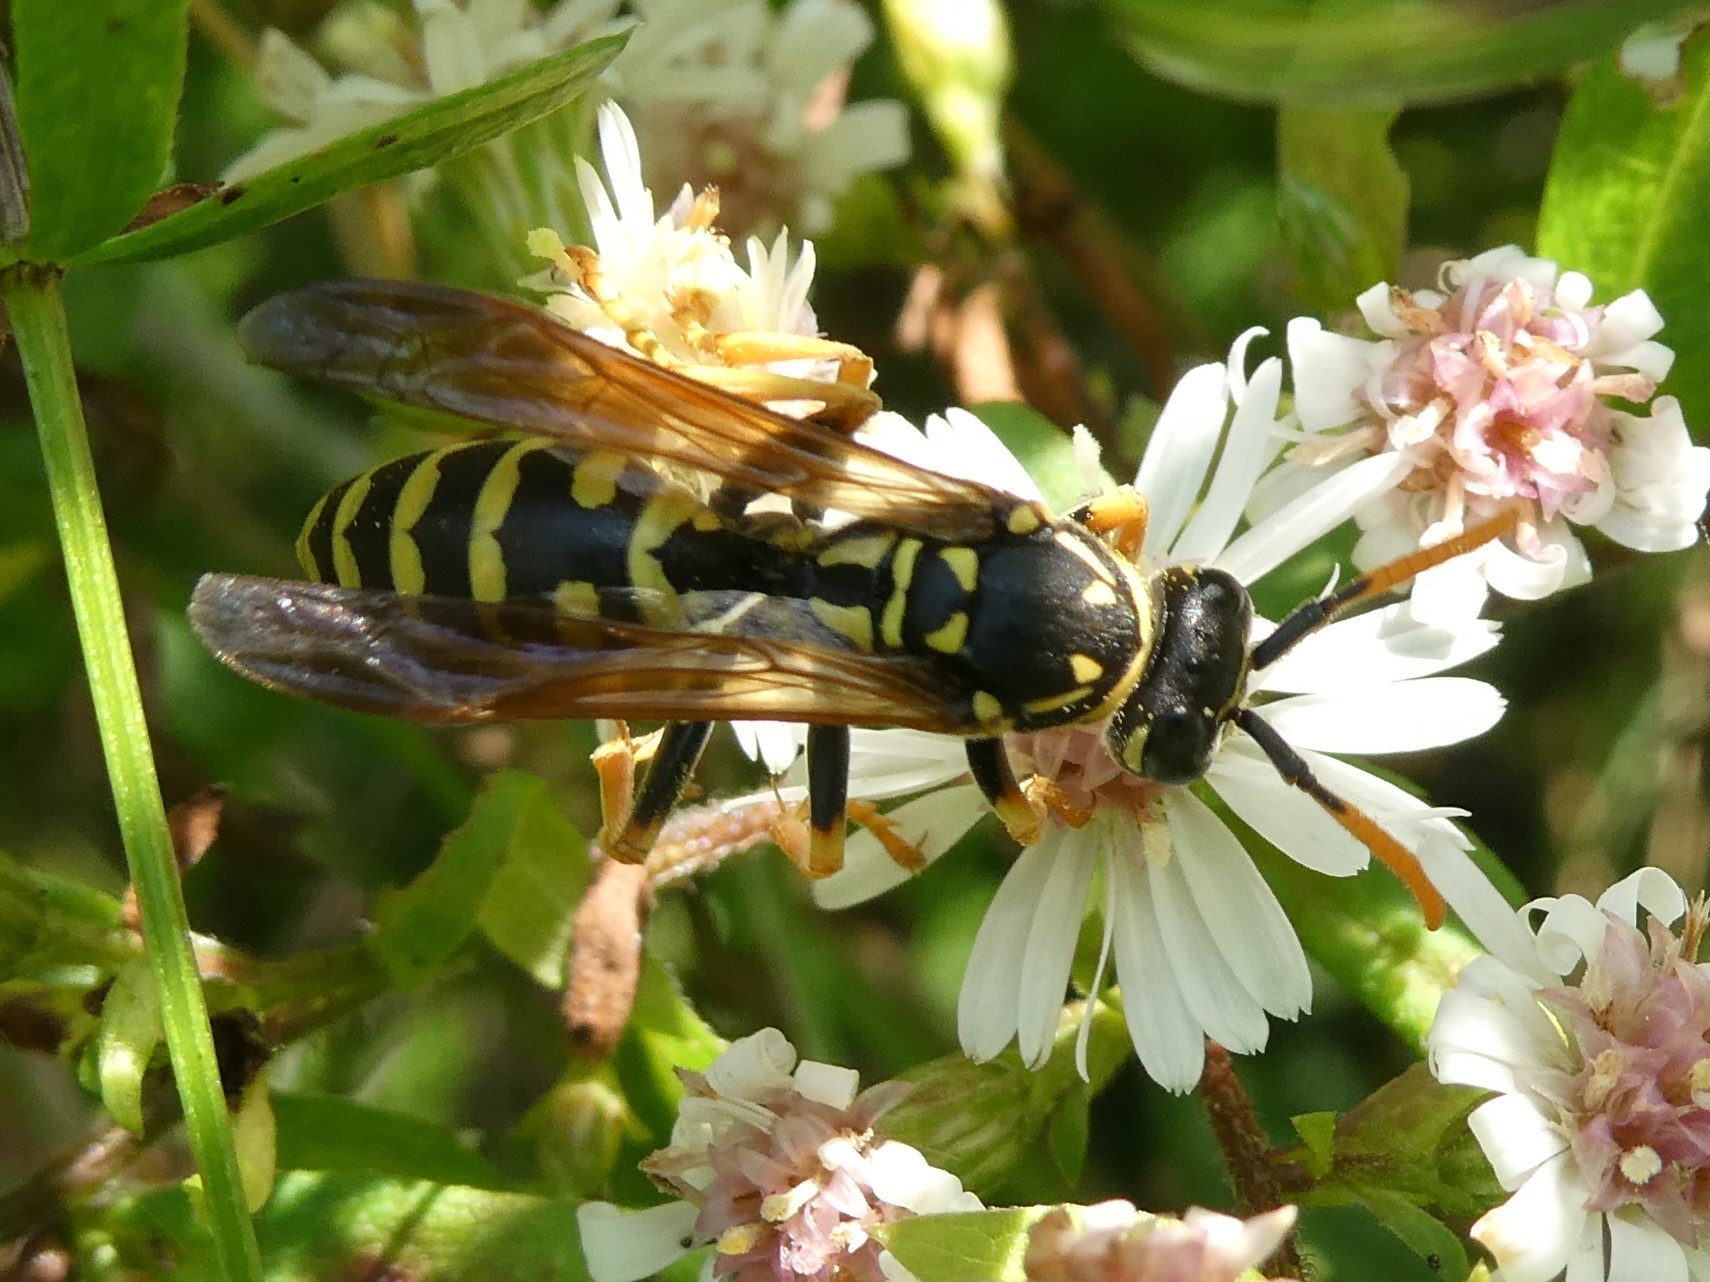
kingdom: Animalia
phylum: Arthropoda
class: Insecta
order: Hymenoptera
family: Eumenidae
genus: Polistes
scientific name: Polistes dominula
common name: Paper wasp
